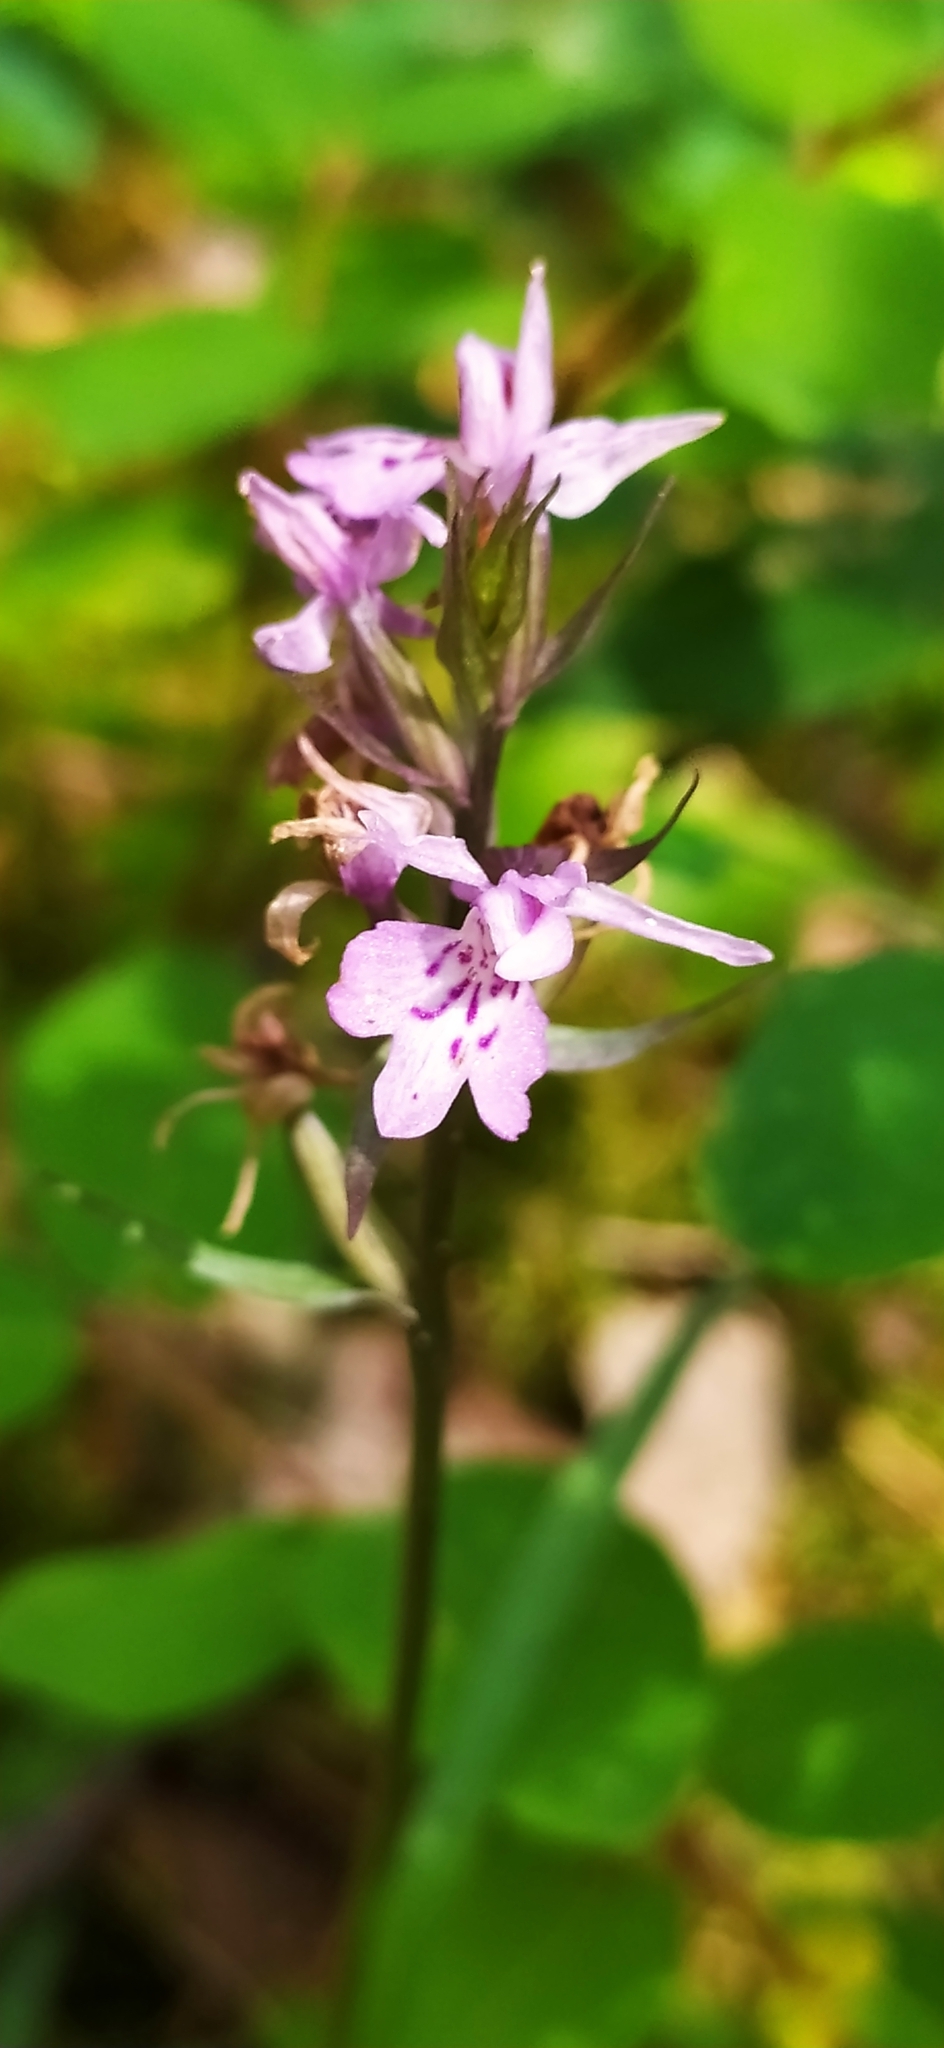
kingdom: Plantae
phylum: Tracheophyta
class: Liliopsida
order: Asparagales
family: Orchidaceae
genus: Dactylorhiza
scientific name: Dactylorhiza maculata
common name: Heath spotted-orchid
